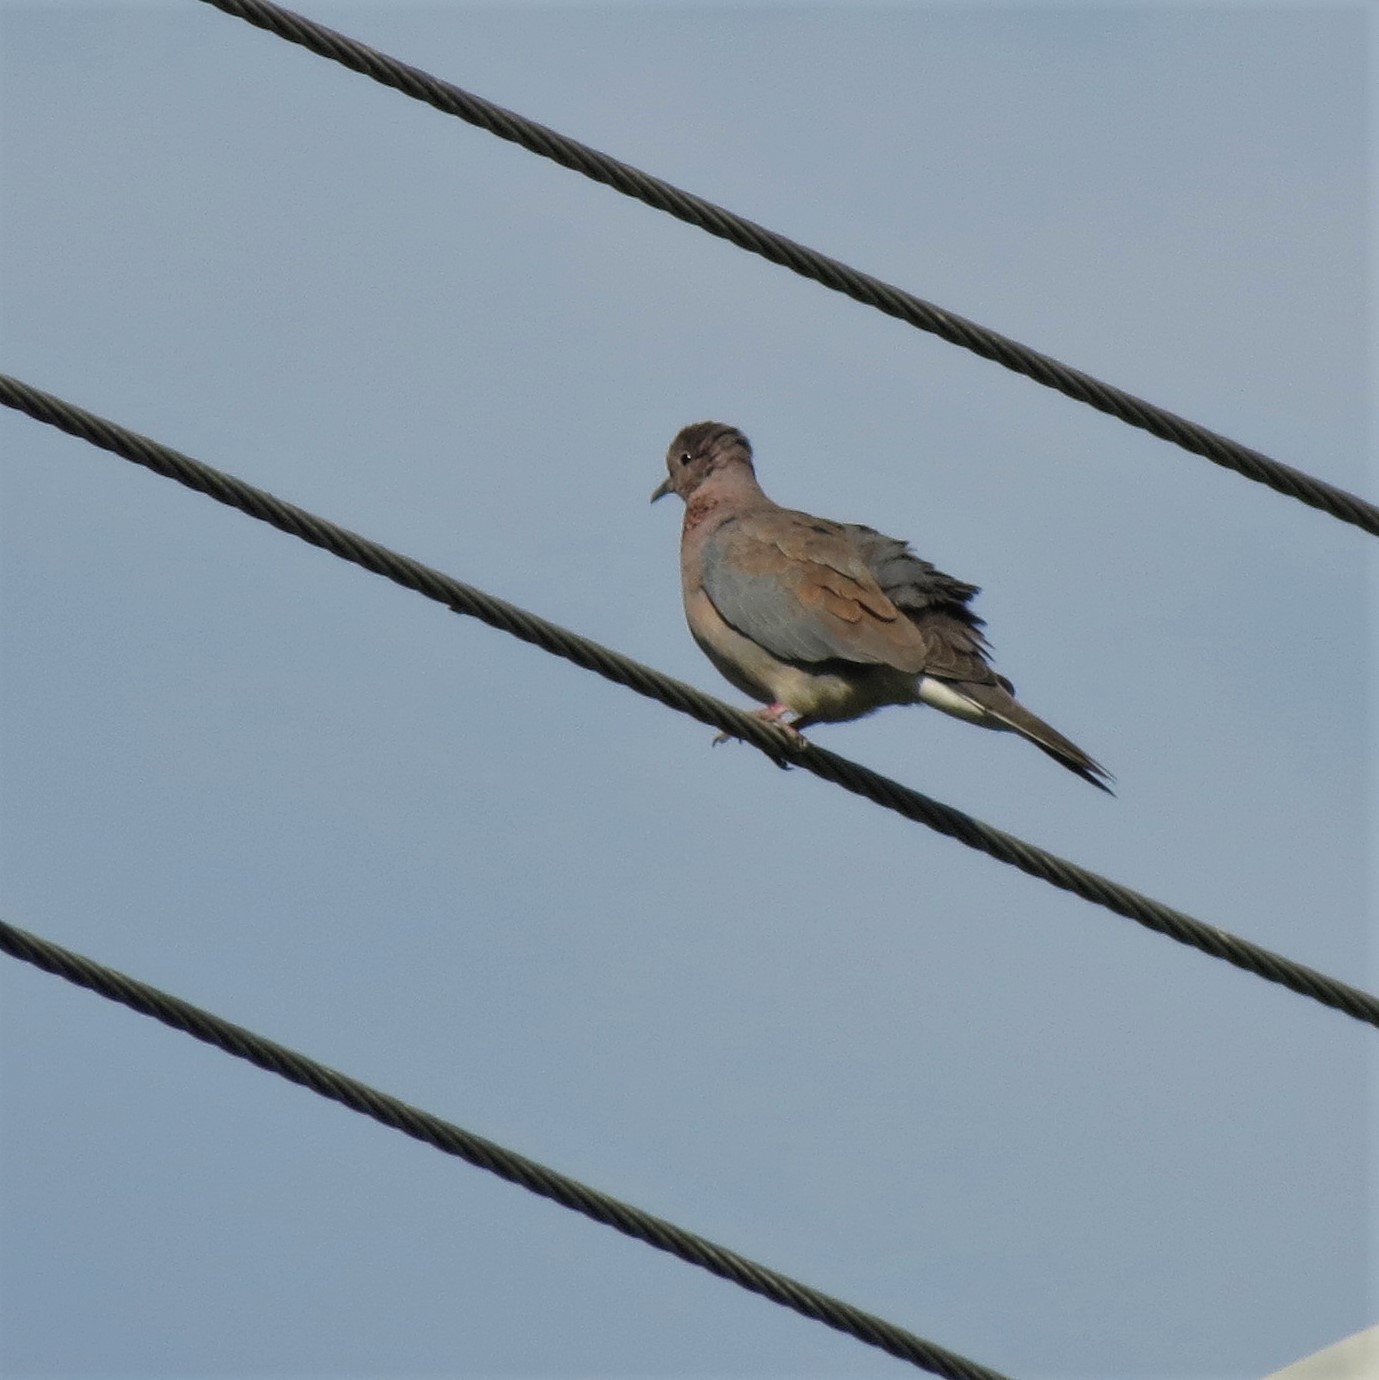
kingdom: Animalia
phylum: Chordata
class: Aves
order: Columbiformes
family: Columbidae
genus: Spilopelia
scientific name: Spilopelia senegalensis
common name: Laughing dove
